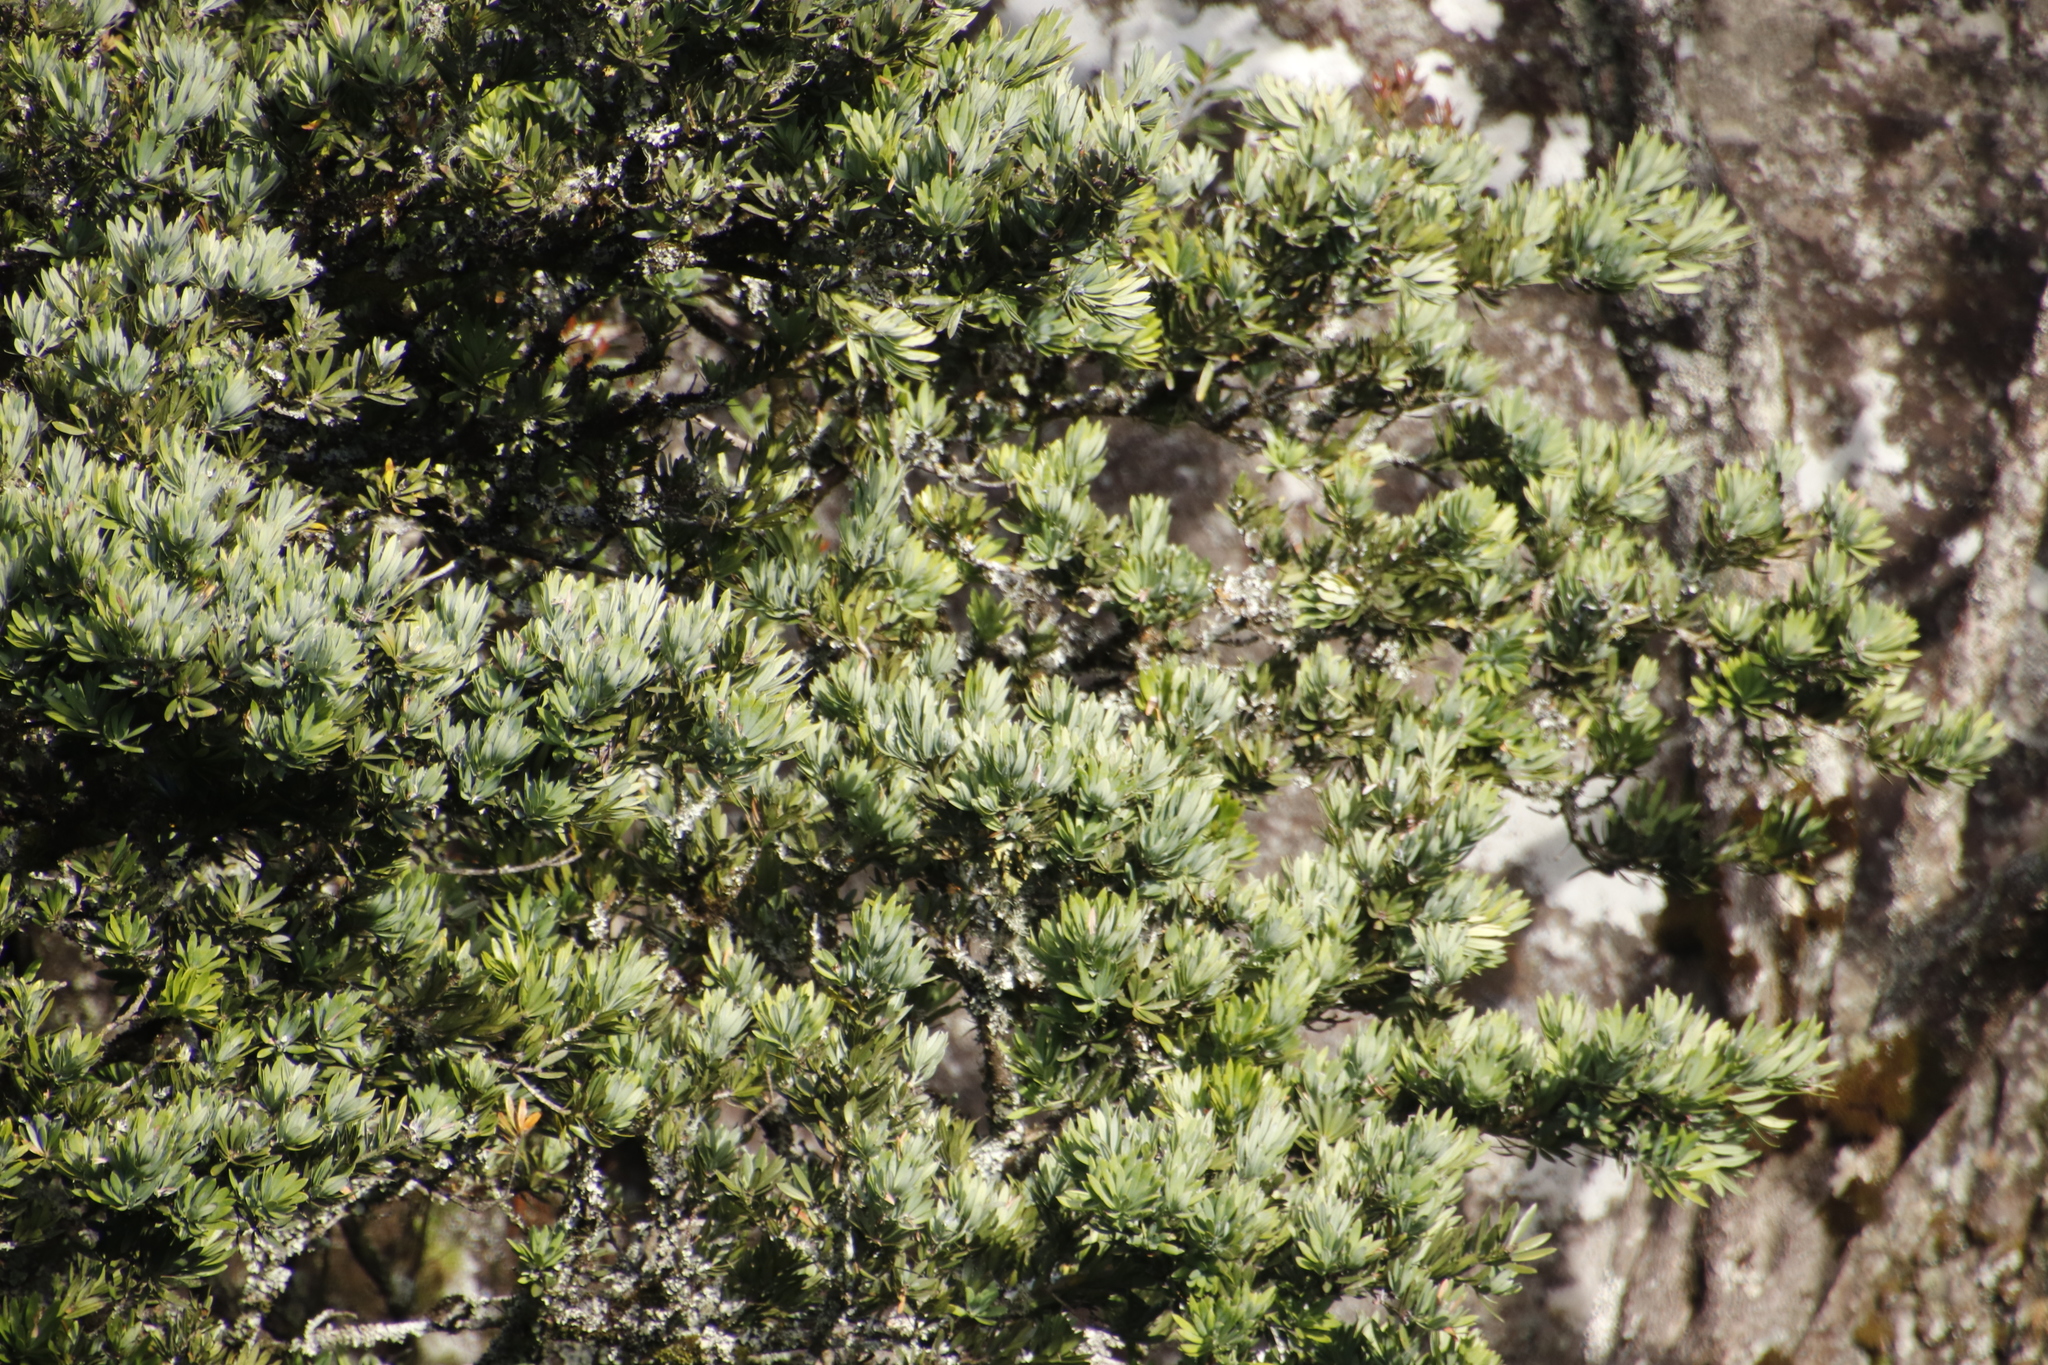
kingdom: Plantae
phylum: Tracheophyta
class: Pinopsida
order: Pinales
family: Podocarpaceae
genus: Podocarpus
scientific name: Podocarpus latifolius
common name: True yellowwood
